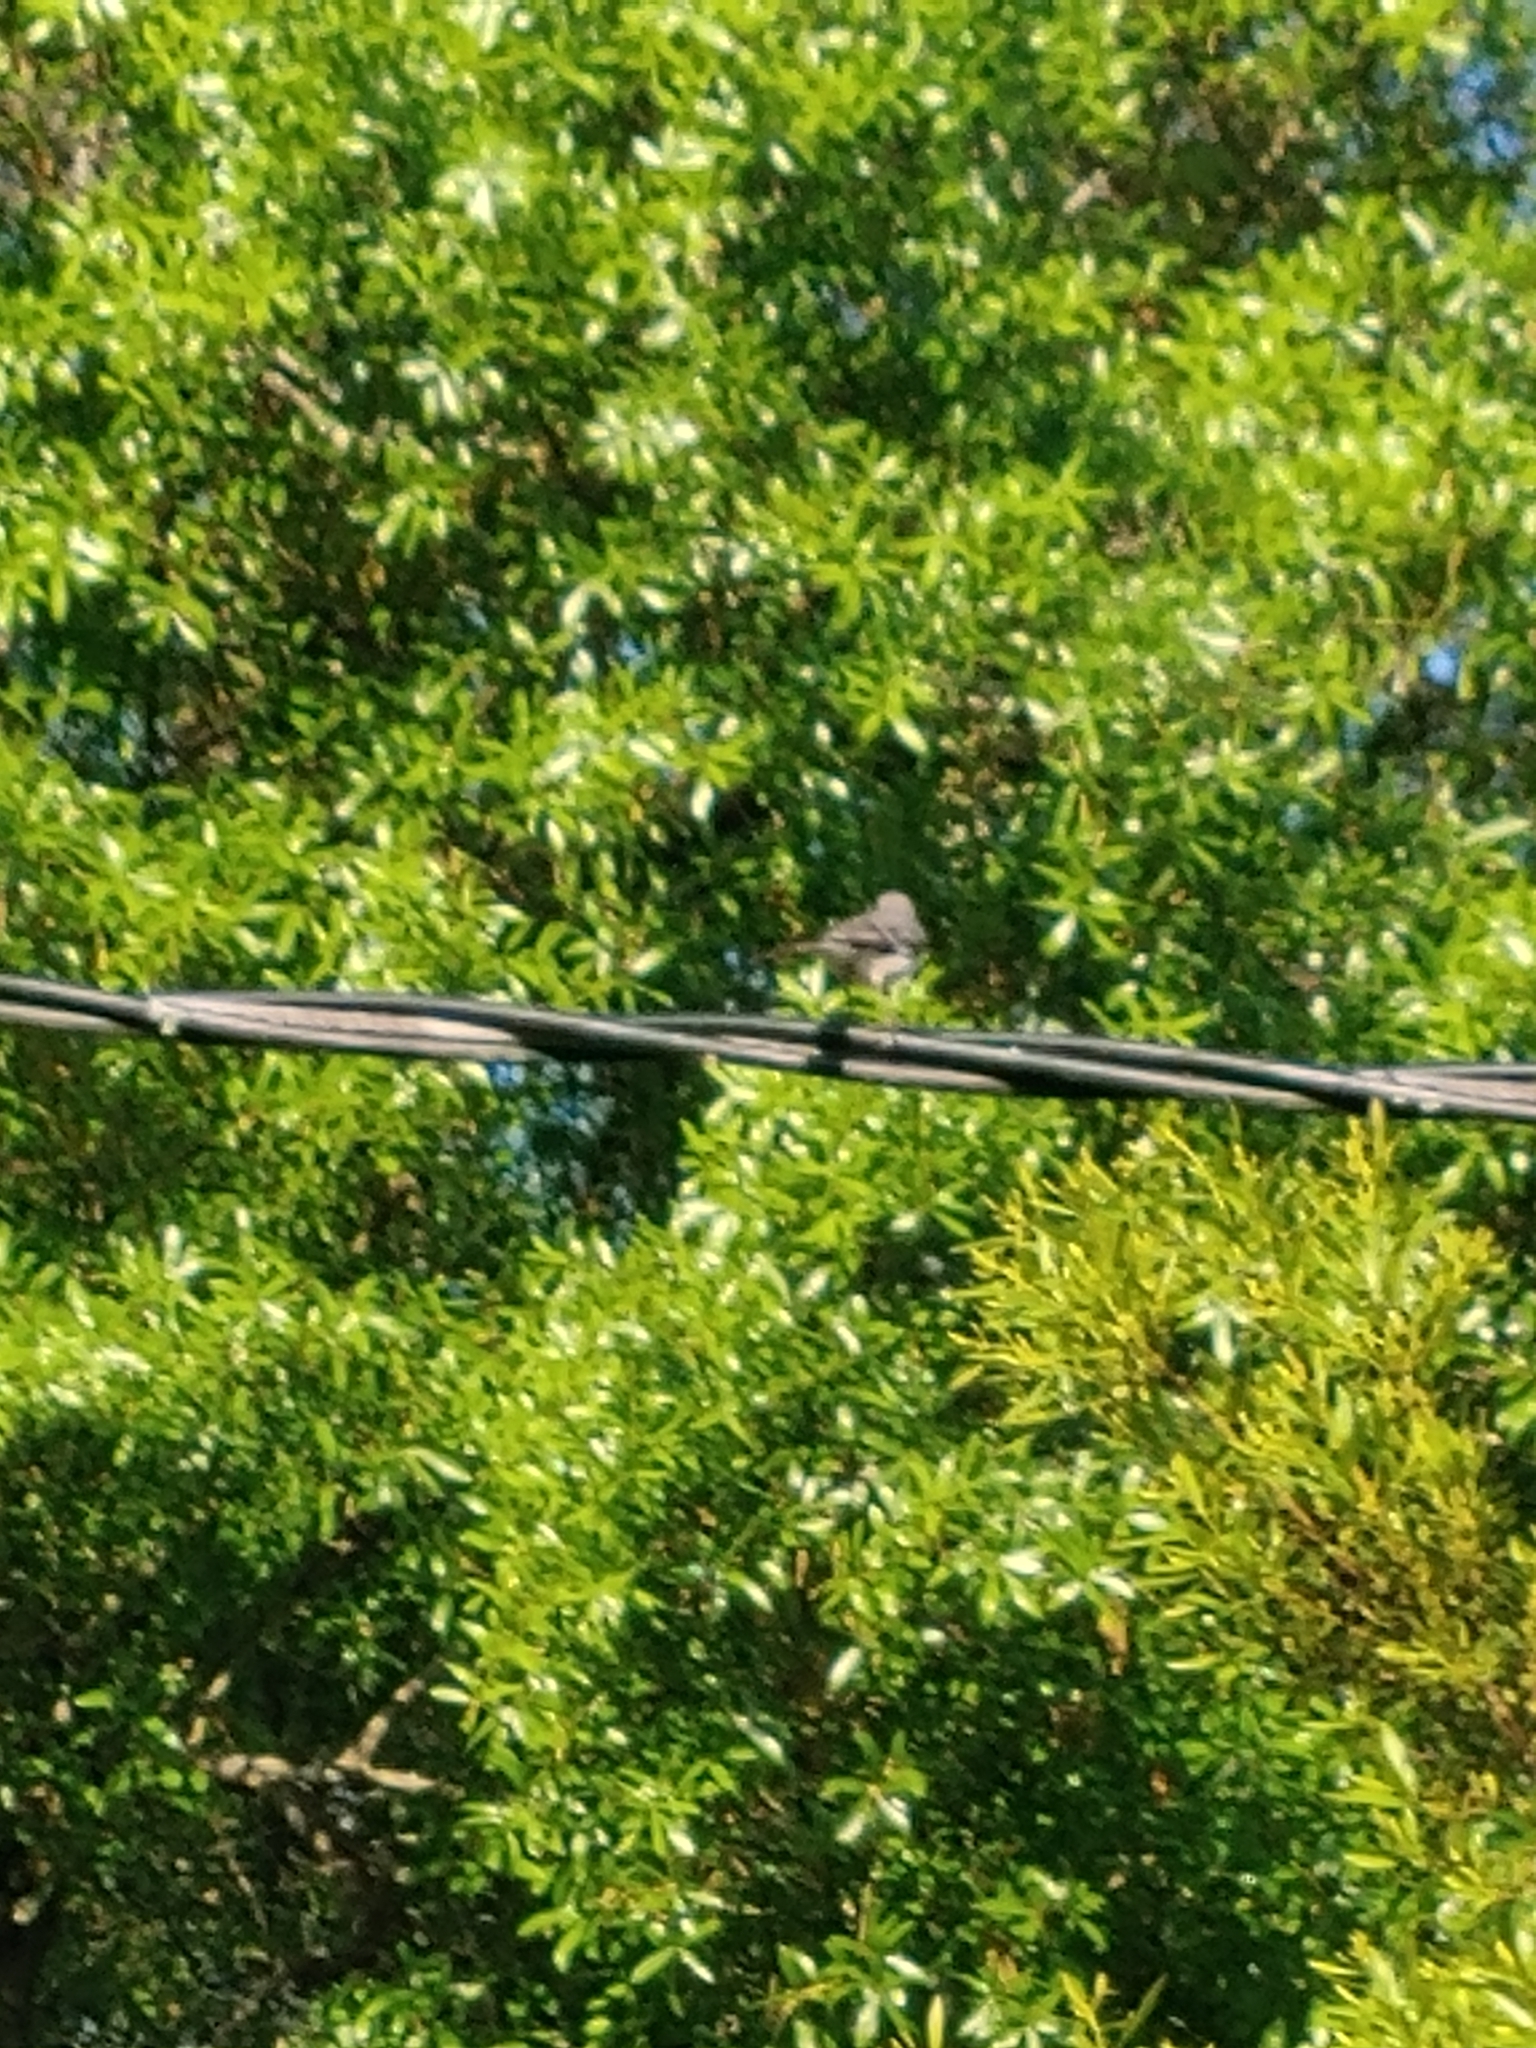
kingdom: Animalia
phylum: Chordata
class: Aves
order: Passeriformes
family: Mimidae
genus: Mimus
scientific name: Mimus polyglottos
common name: Northern mockingbird
